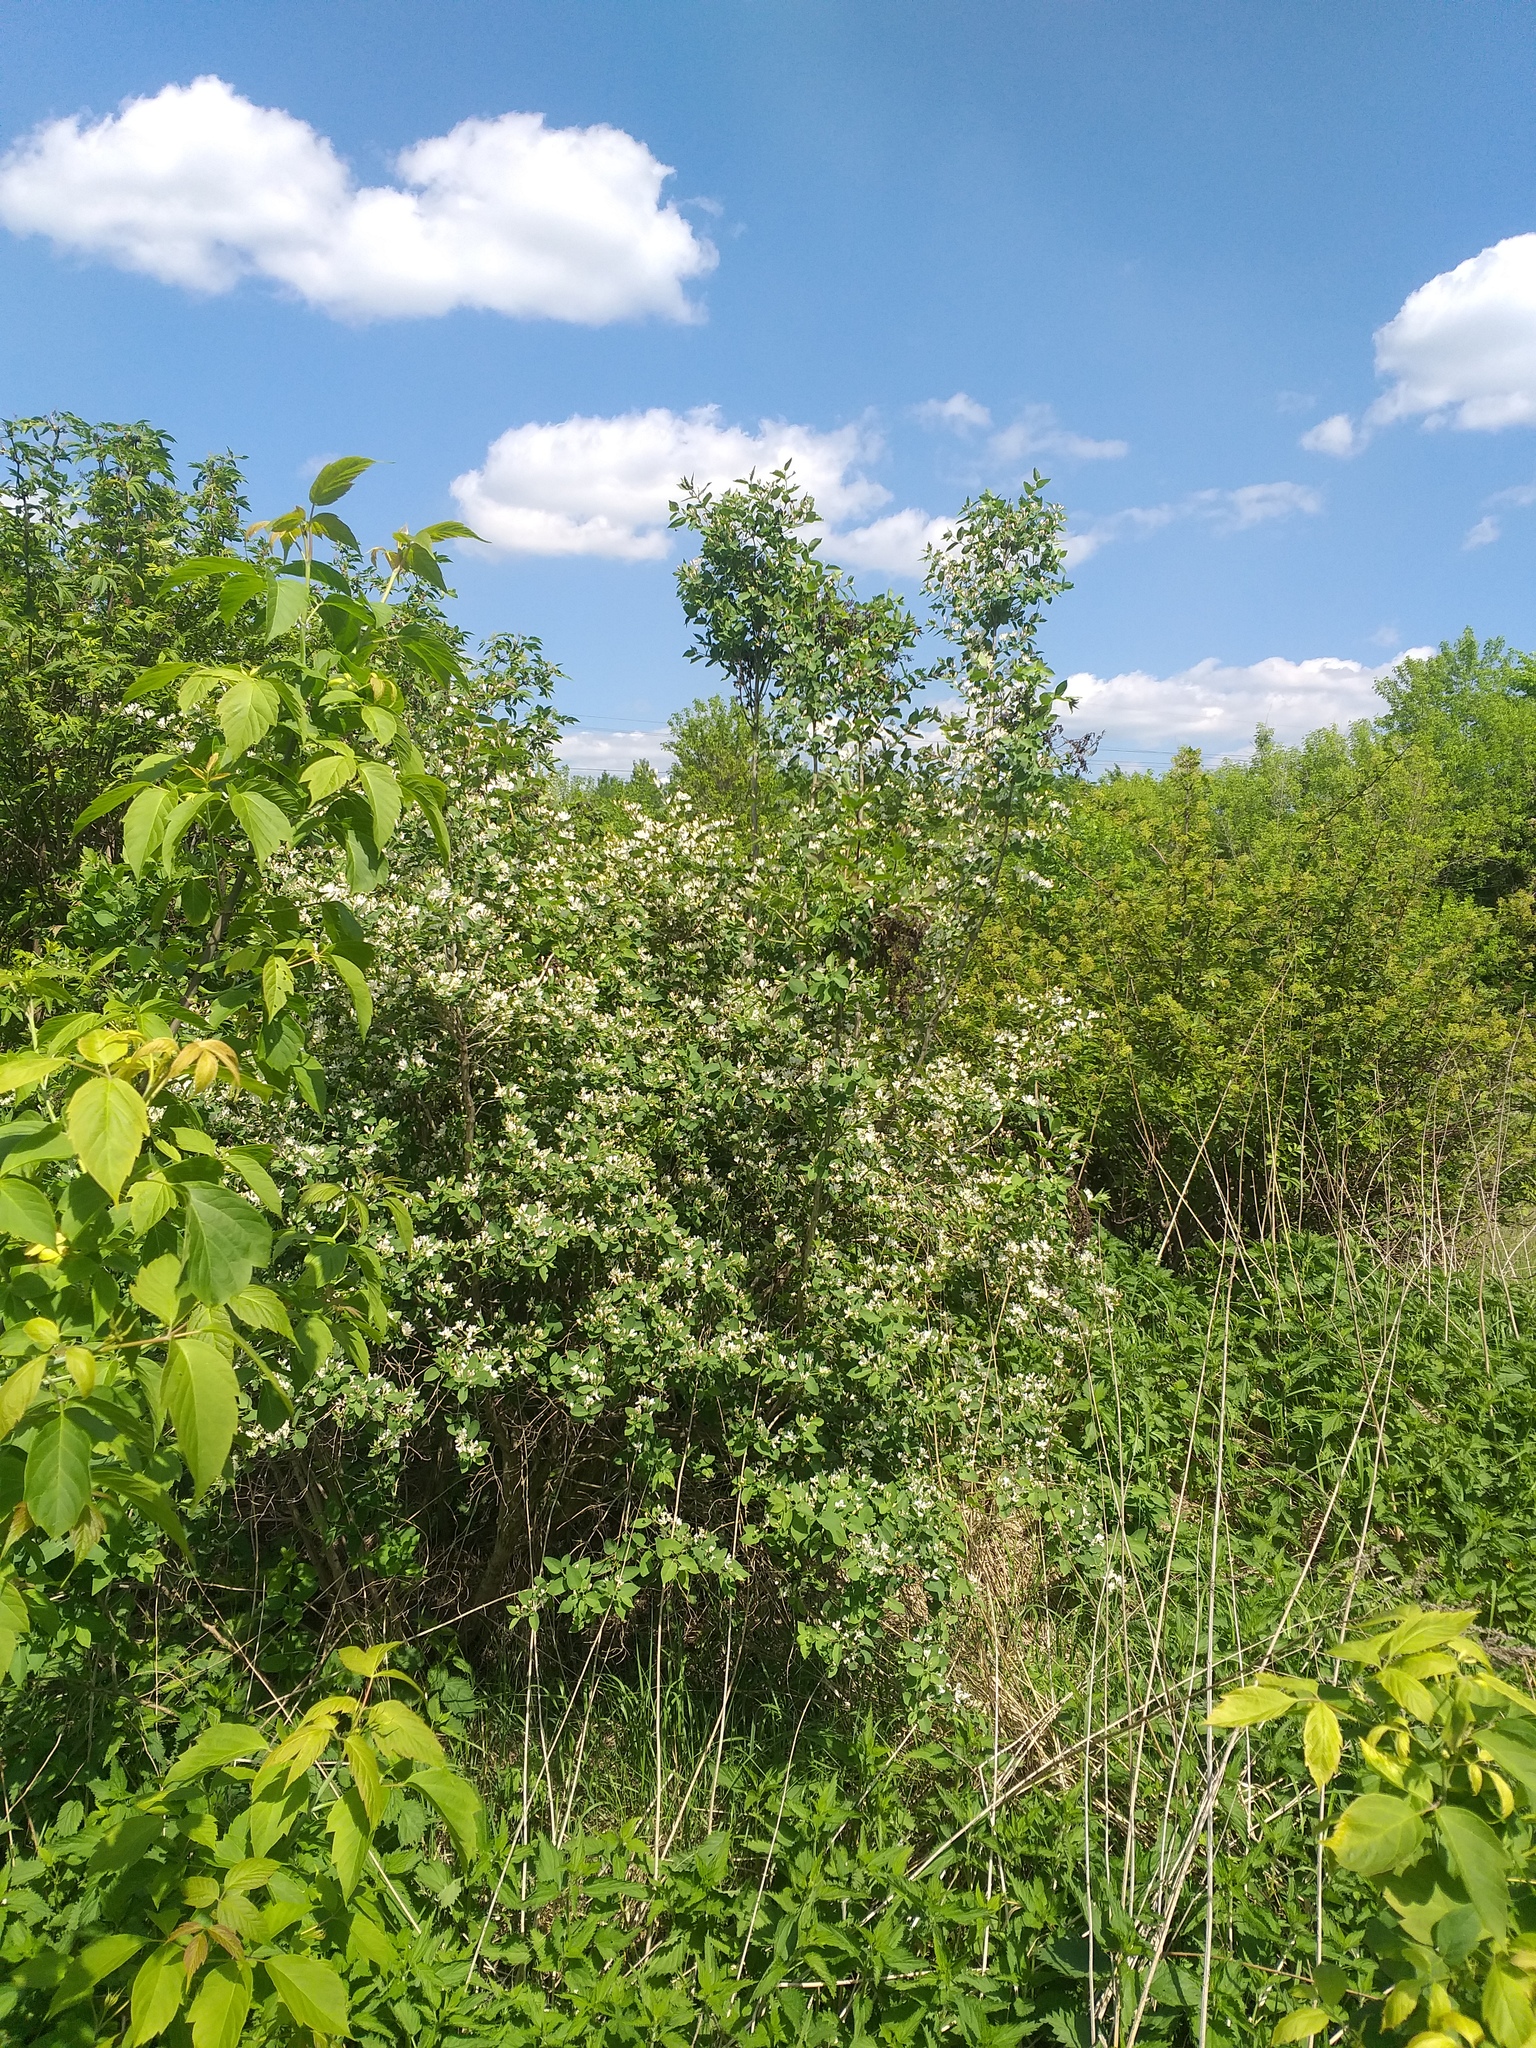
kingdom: Plantae
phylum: Tracheophyta
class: Magnoliopsida
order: Dipsacales
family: Caprifoliaceae
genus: Lonicera
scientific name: Lonicera tatarica
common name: Tatarian honeysuckle
